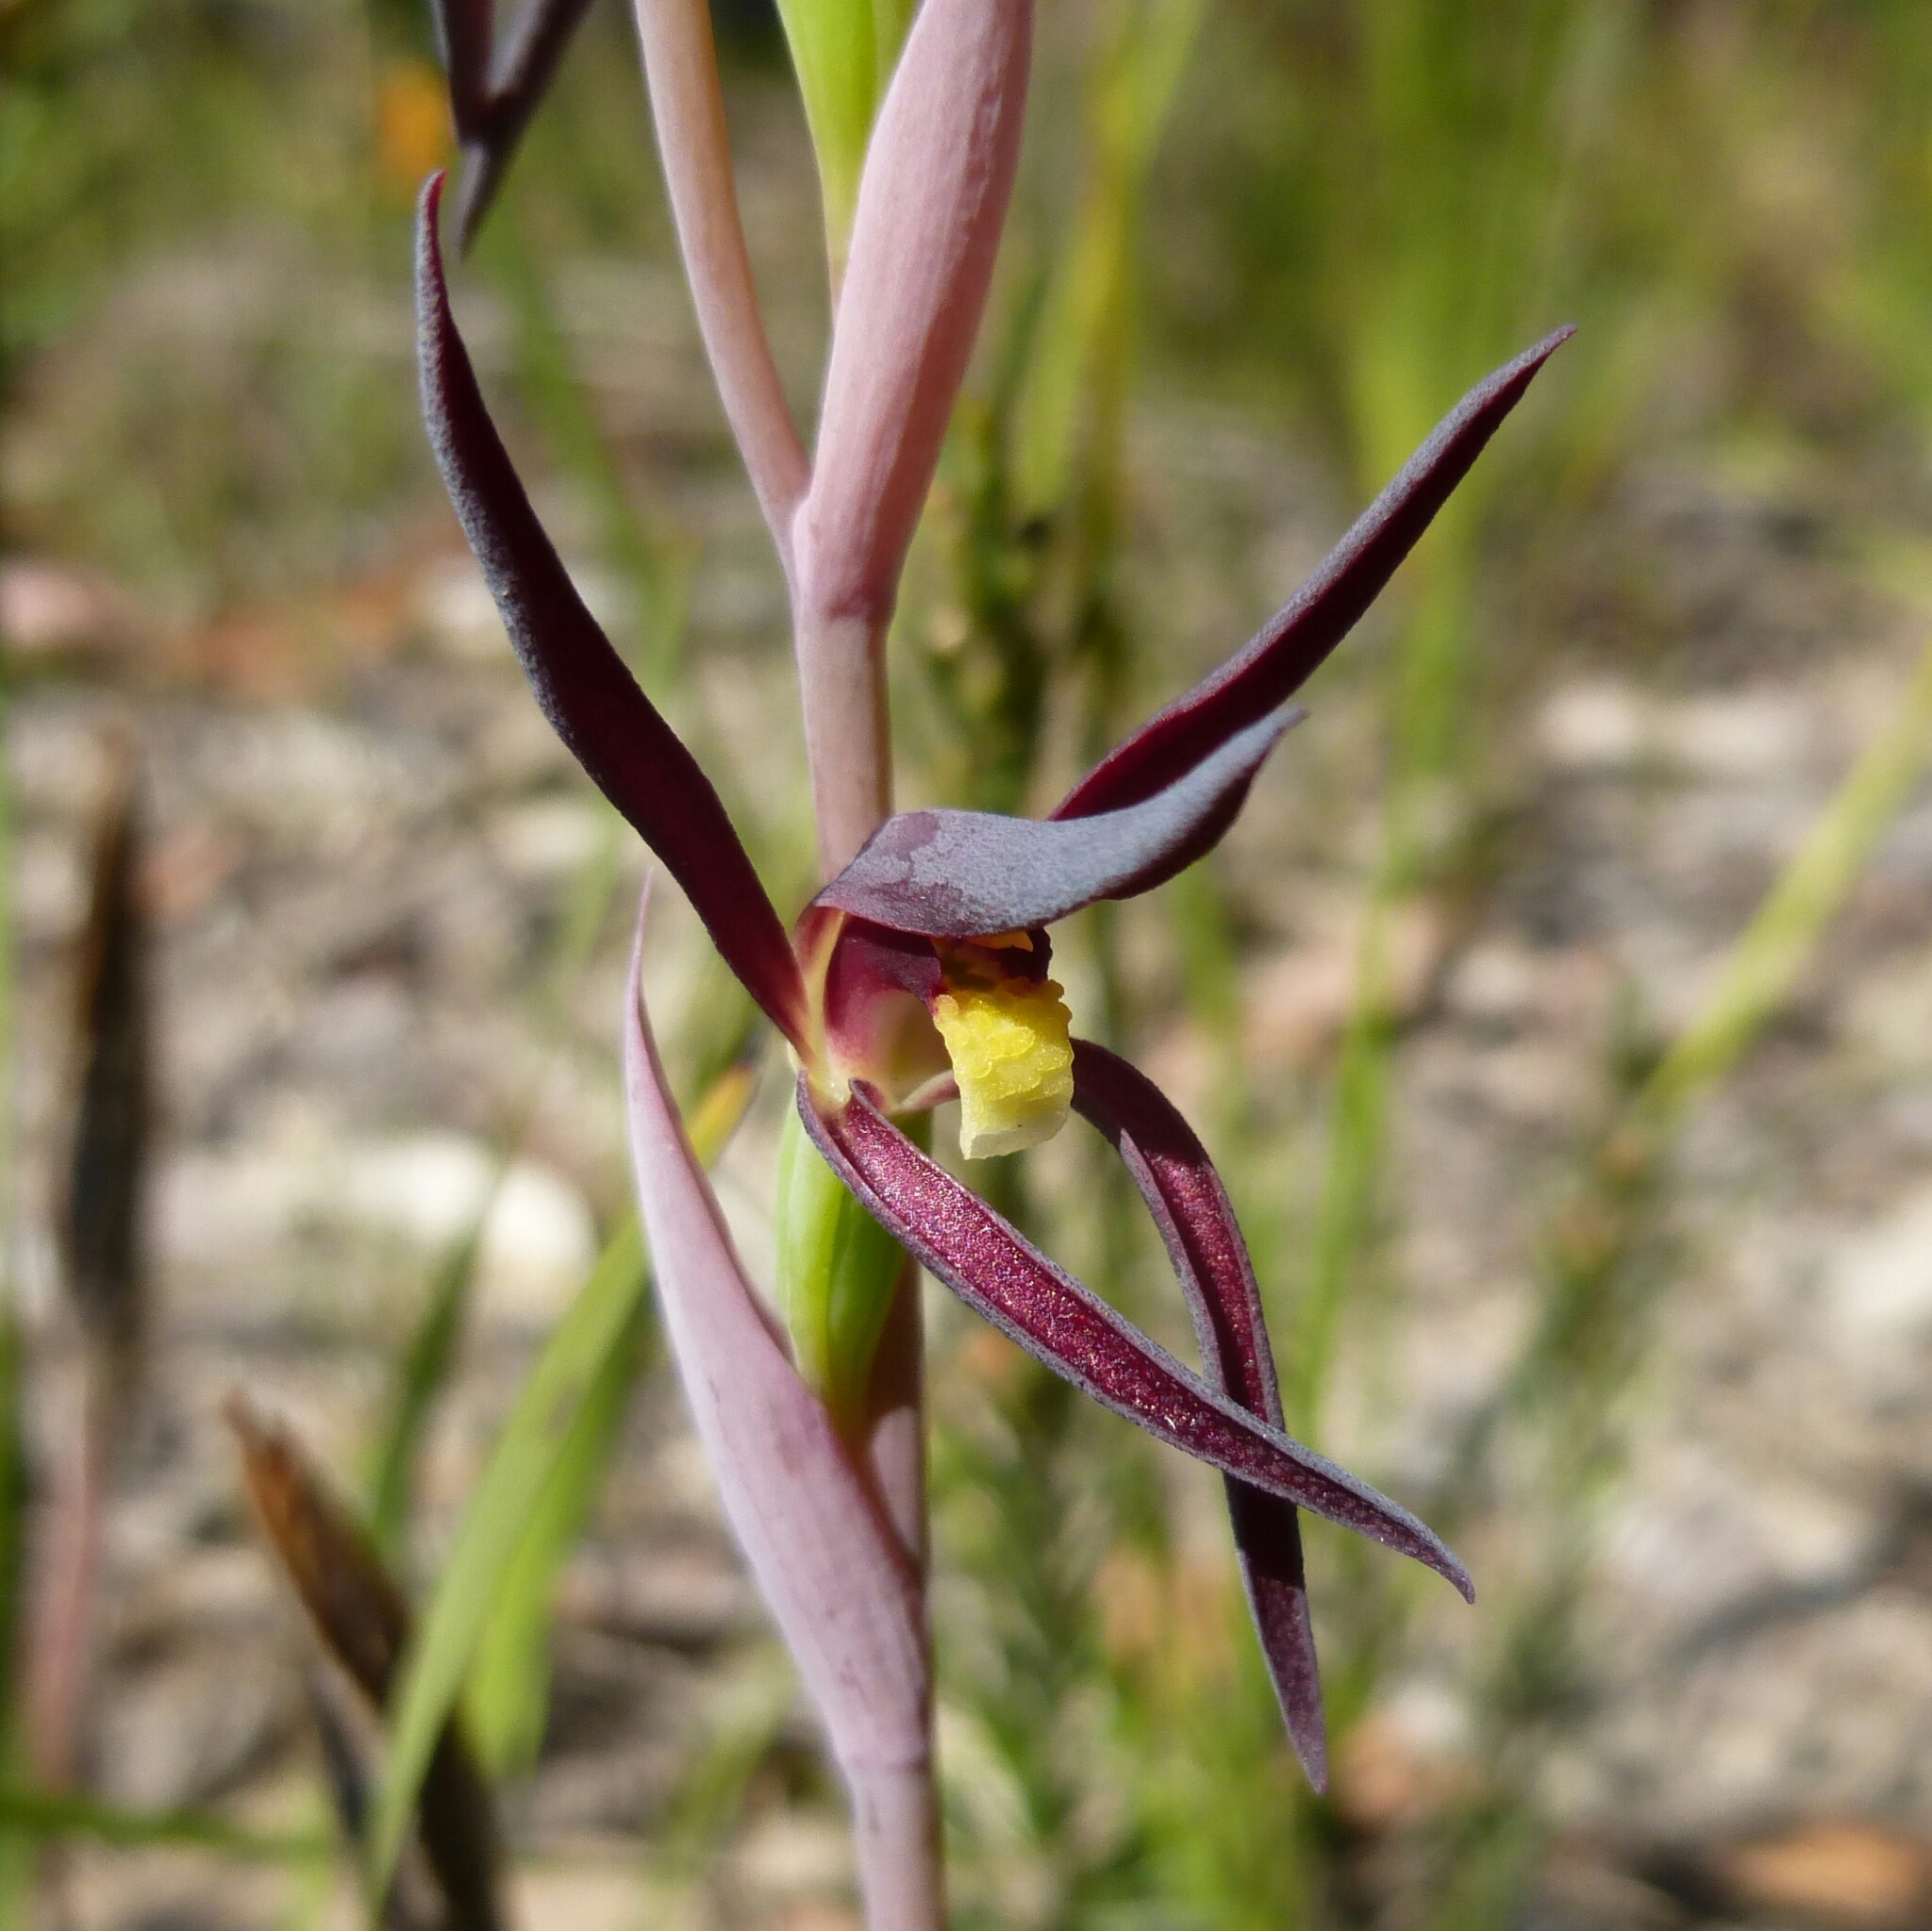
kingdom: Plantae
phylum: Tracheophyta
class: Liliopsida
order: Asparagales
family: Orchidaceae
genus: Lyperanthus
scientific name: Lyperanthus suaveolens
